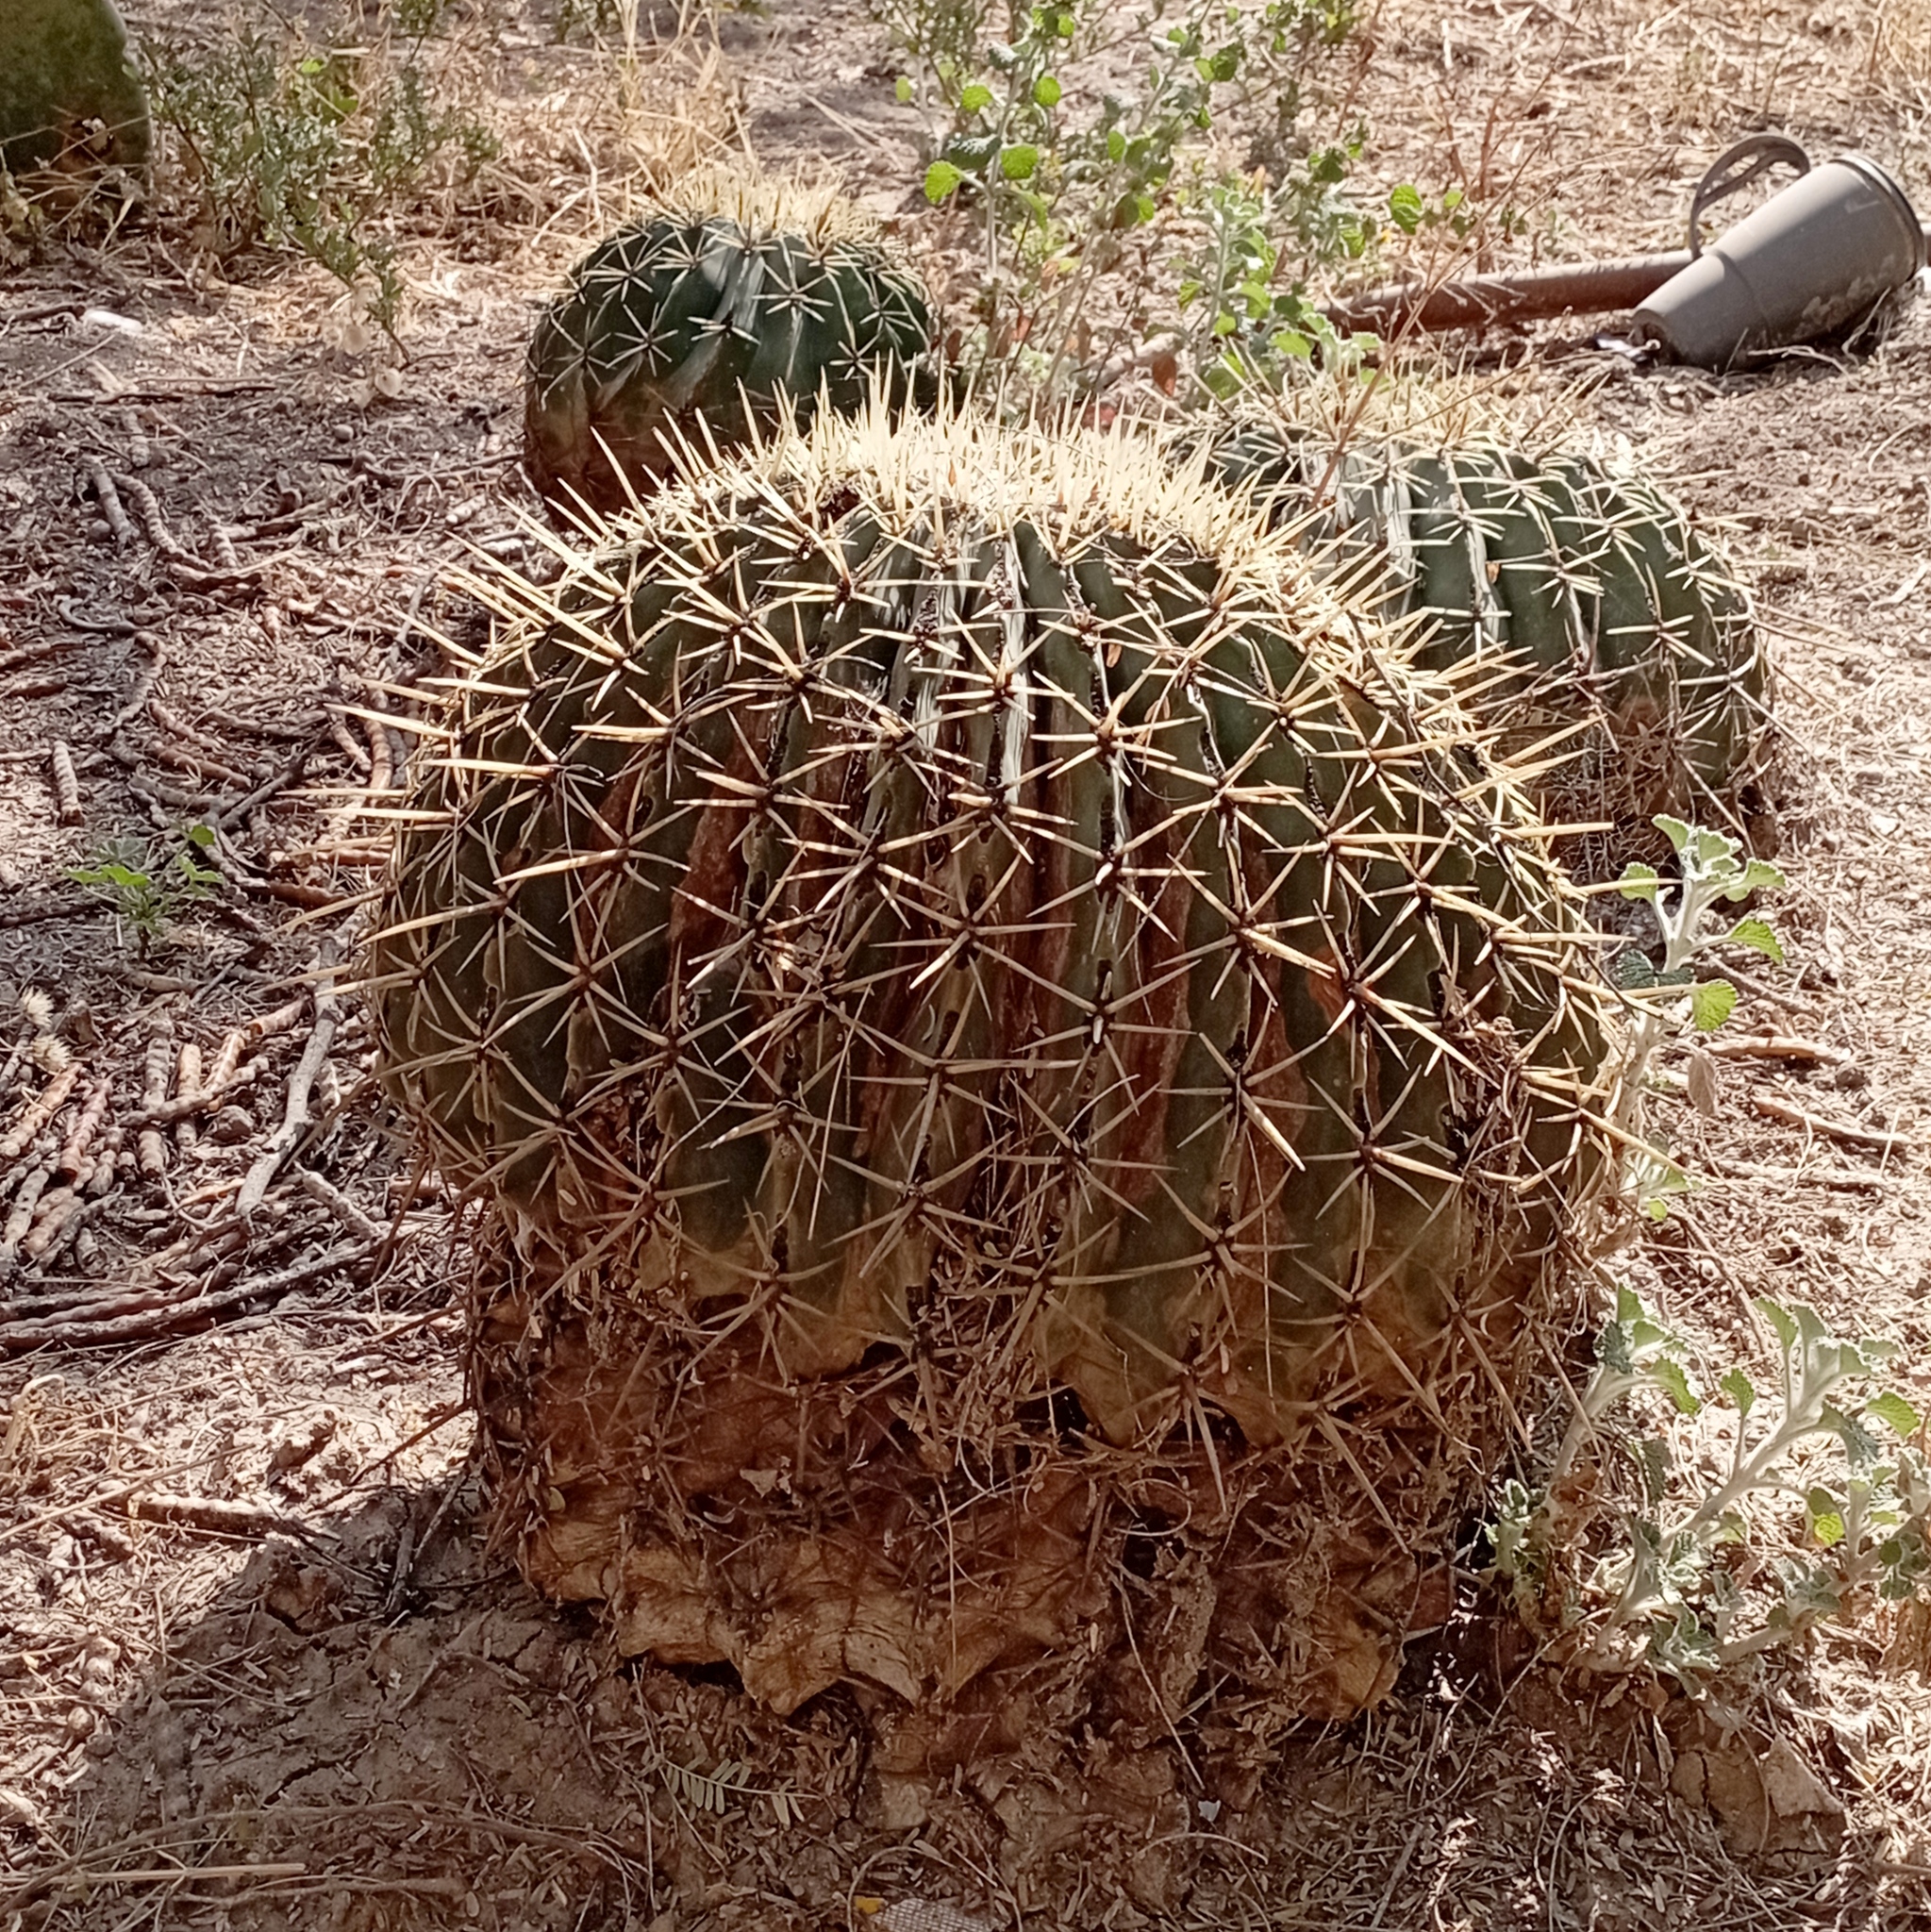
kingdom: Plantae
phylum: Tracheophyta
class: Magnoliopsida
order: Caryophyllales
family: Cactaceae
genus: Bisnaga
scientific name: Bisnaga histrix
